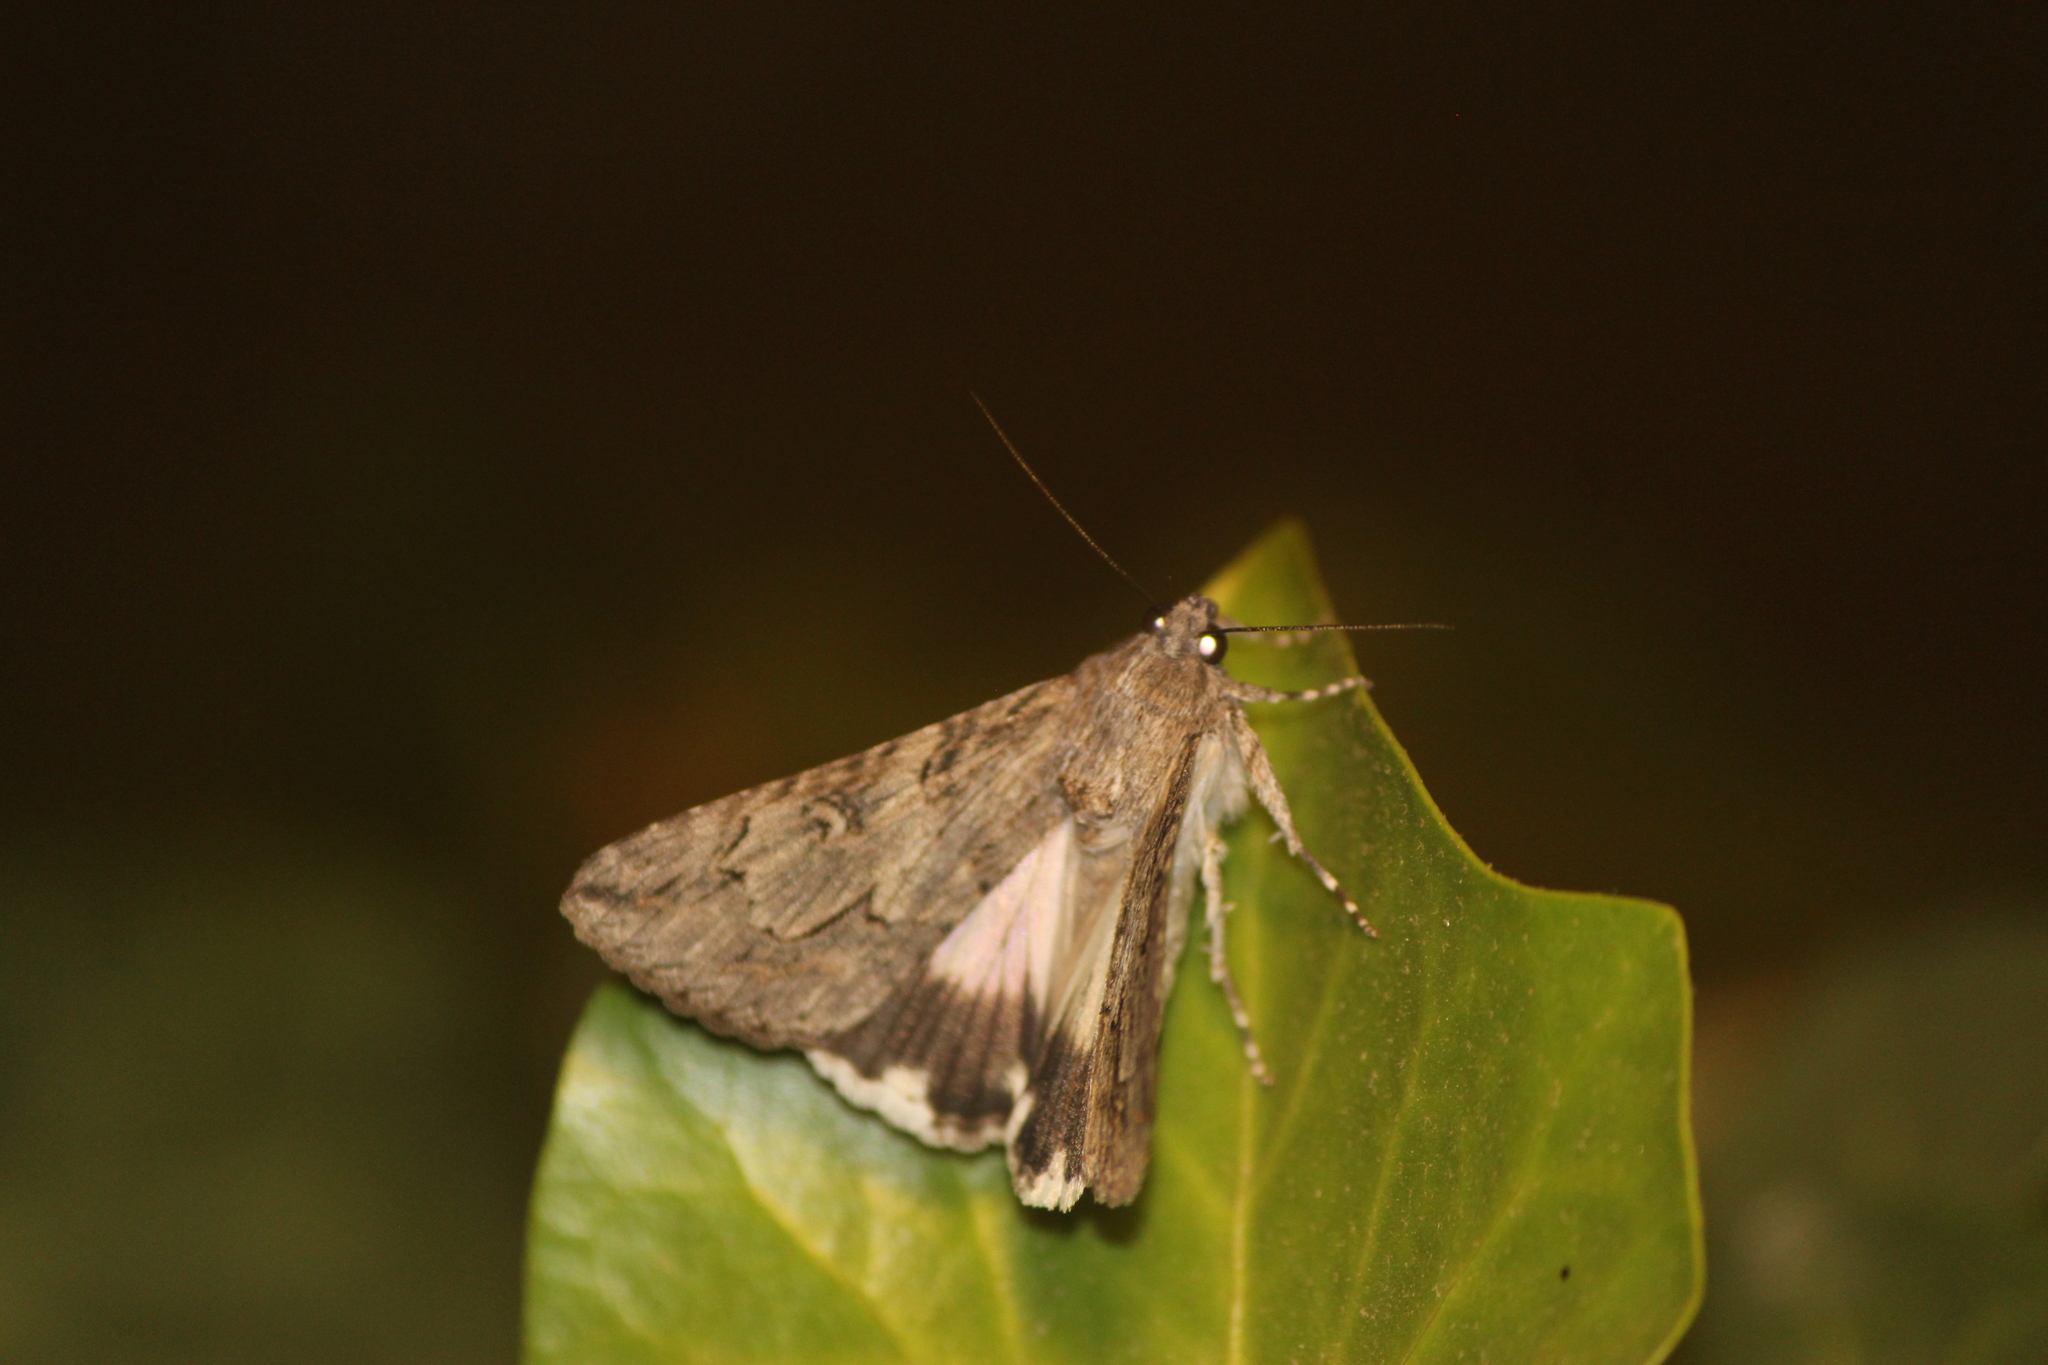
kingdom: Animalia
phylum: Arthropoda
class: Insecta
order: Lepidoptera
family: Erebidae
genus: Melipotis
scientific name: Melipotis jucunda
